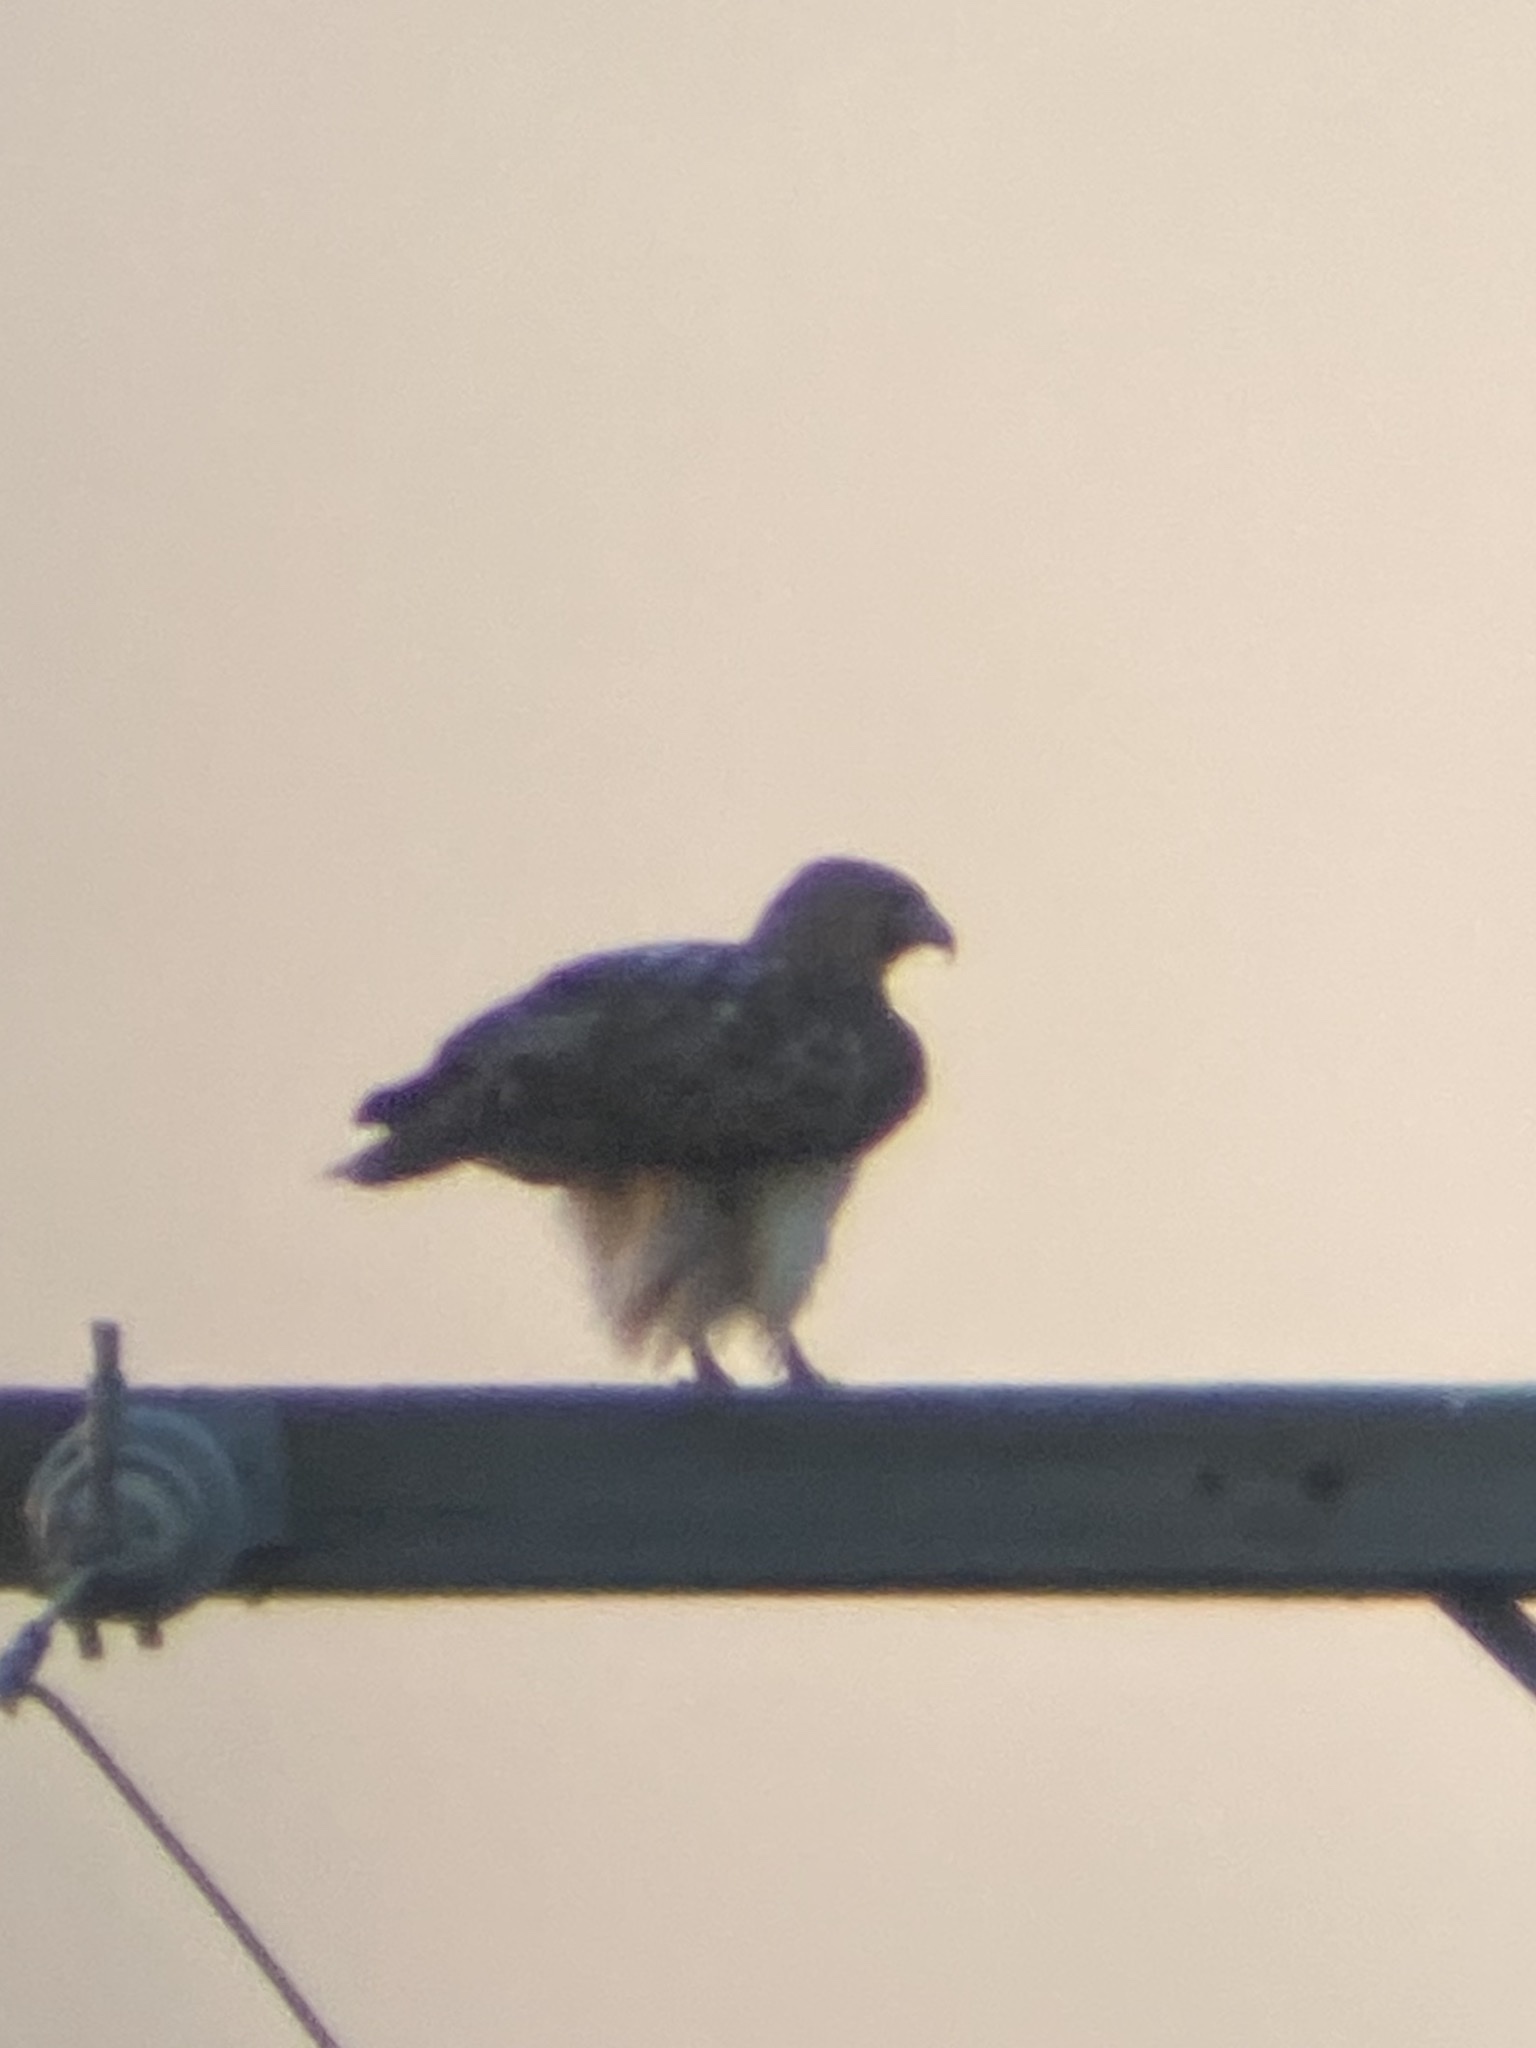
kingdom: Animalia
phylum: Chordata
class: Aves
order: Accipitriformes
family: Accipitridae
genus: Buteo
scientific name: Buteo jamaicensis
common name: Red-tailed hawk
